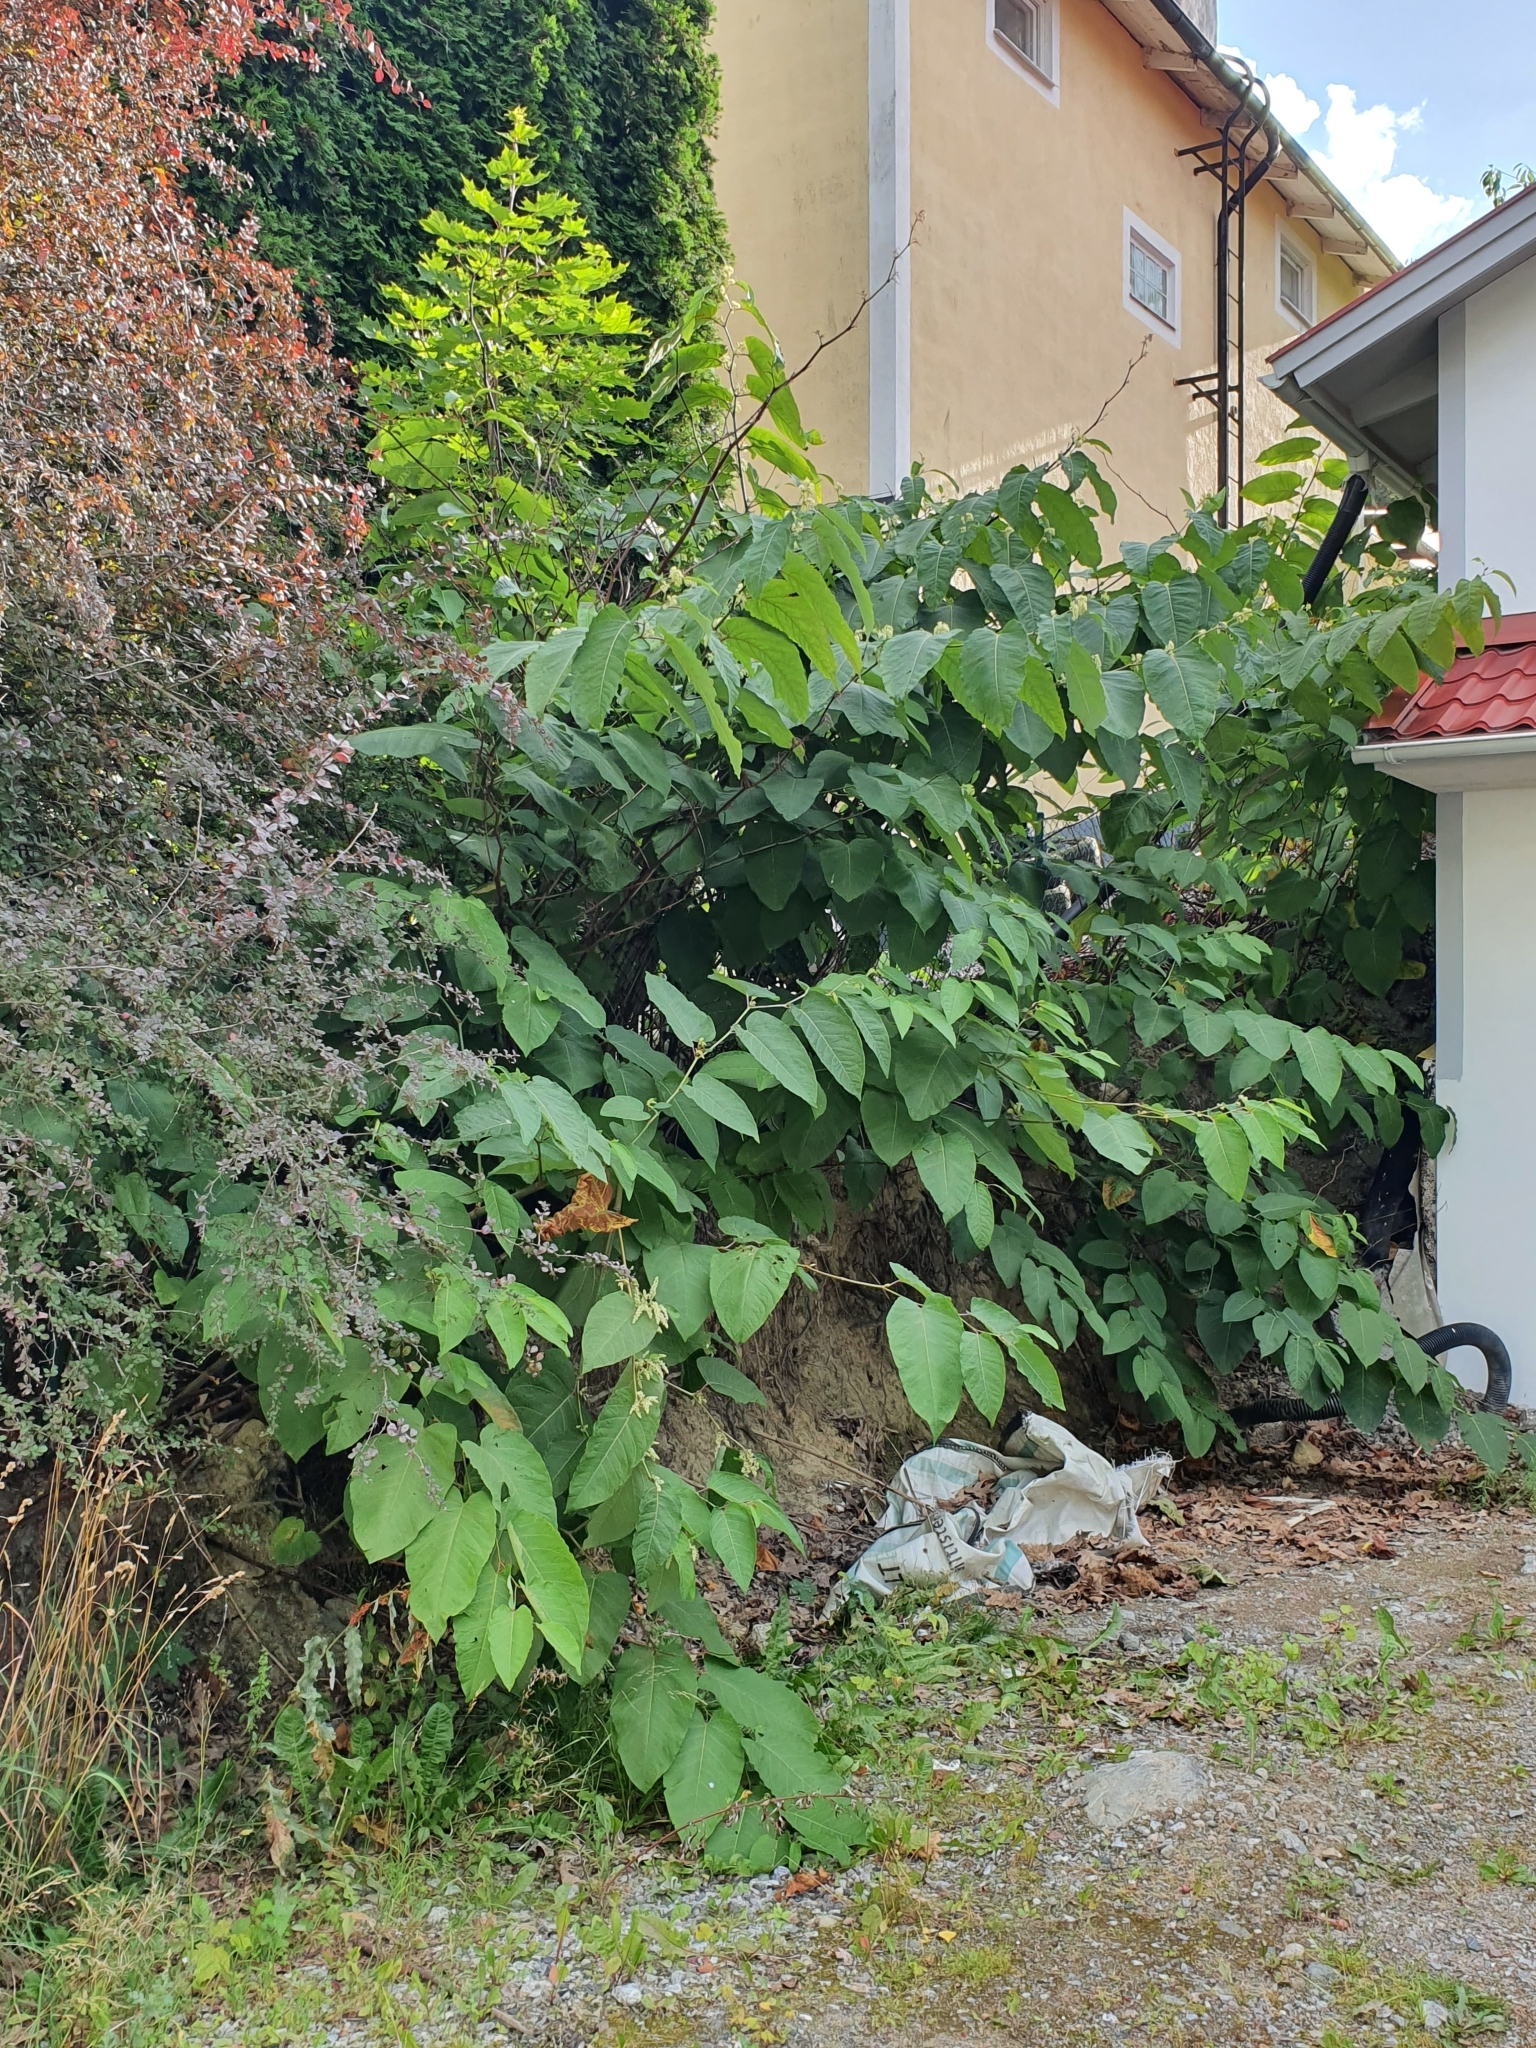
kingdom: Plantae
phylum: Tracheophyta
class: Magnoliopsida
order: Caryophyllales
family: Polygonaceae
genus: Reynoutria
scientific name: Reynoutria sachalinensis
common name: Giant knotweed
